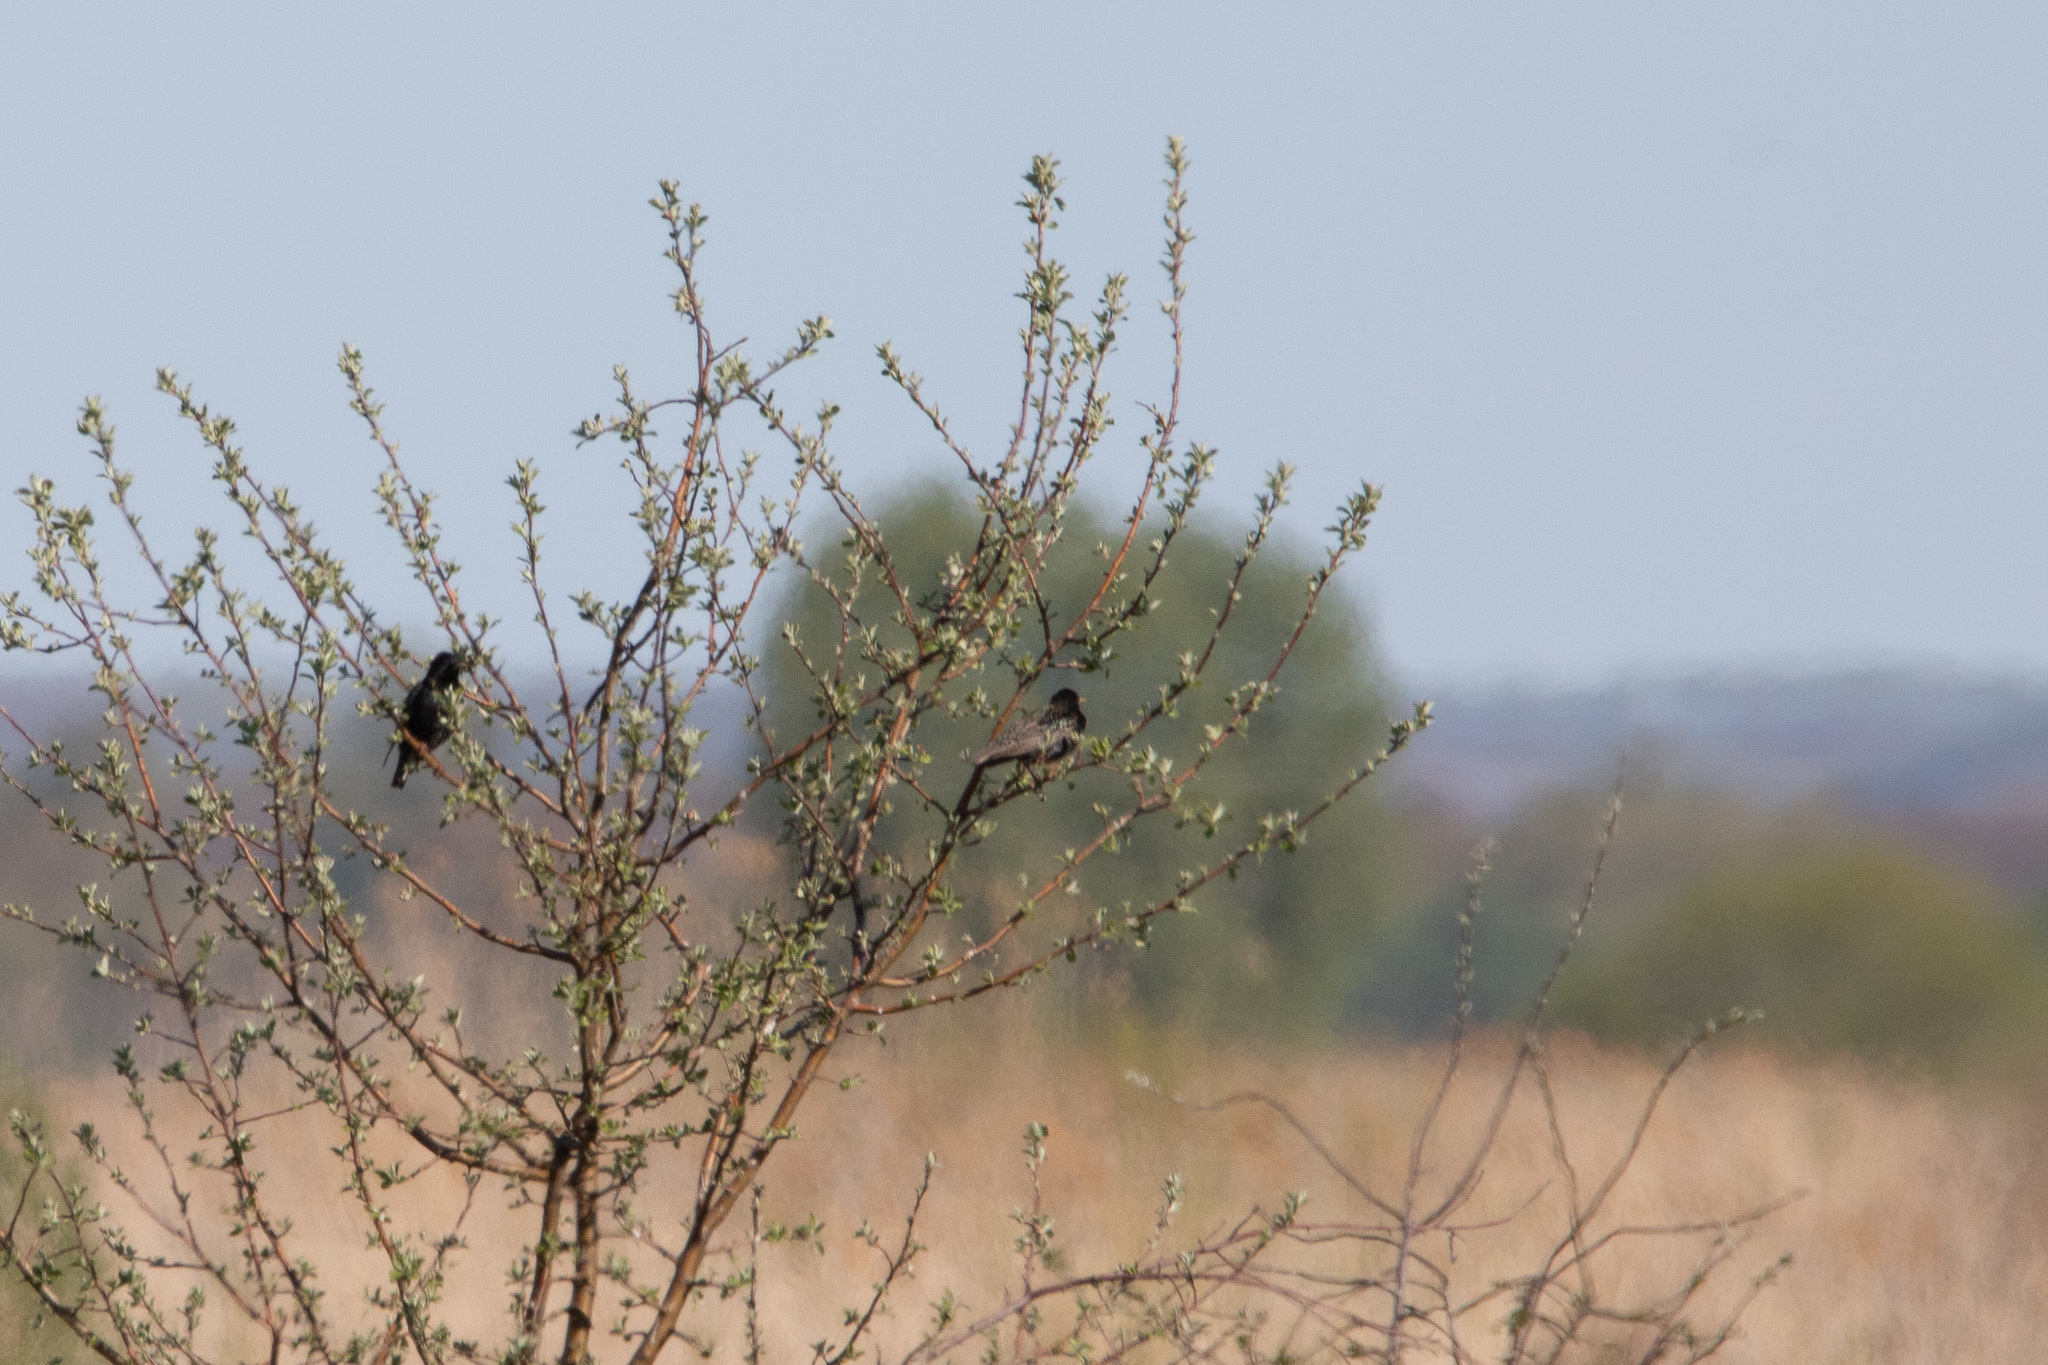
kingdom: Animalia
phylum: Chordata
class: Aves
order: Passeriformes
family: Sturnidae
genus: Sturnus
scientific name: Sturnus vulgaris
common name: Common starling
